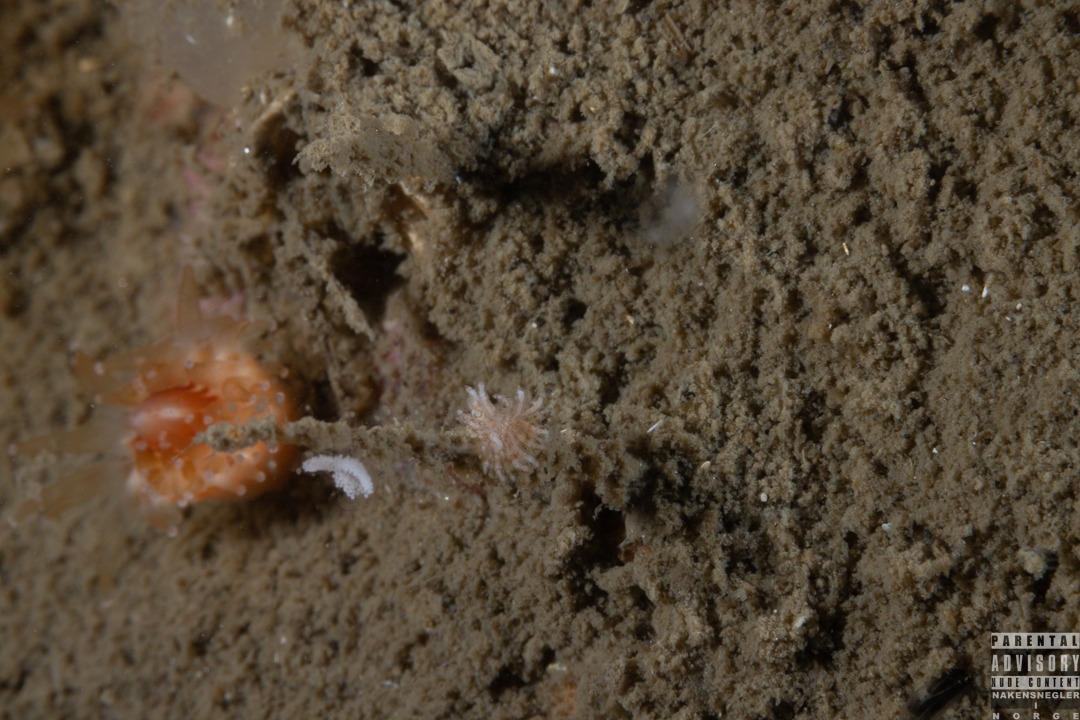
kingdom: Animalia
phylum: Mollusca
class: Gastropoda
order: Nudibranchia
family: Eubranchidae
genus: Eubranchus
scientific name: Eubranchus vittatus
